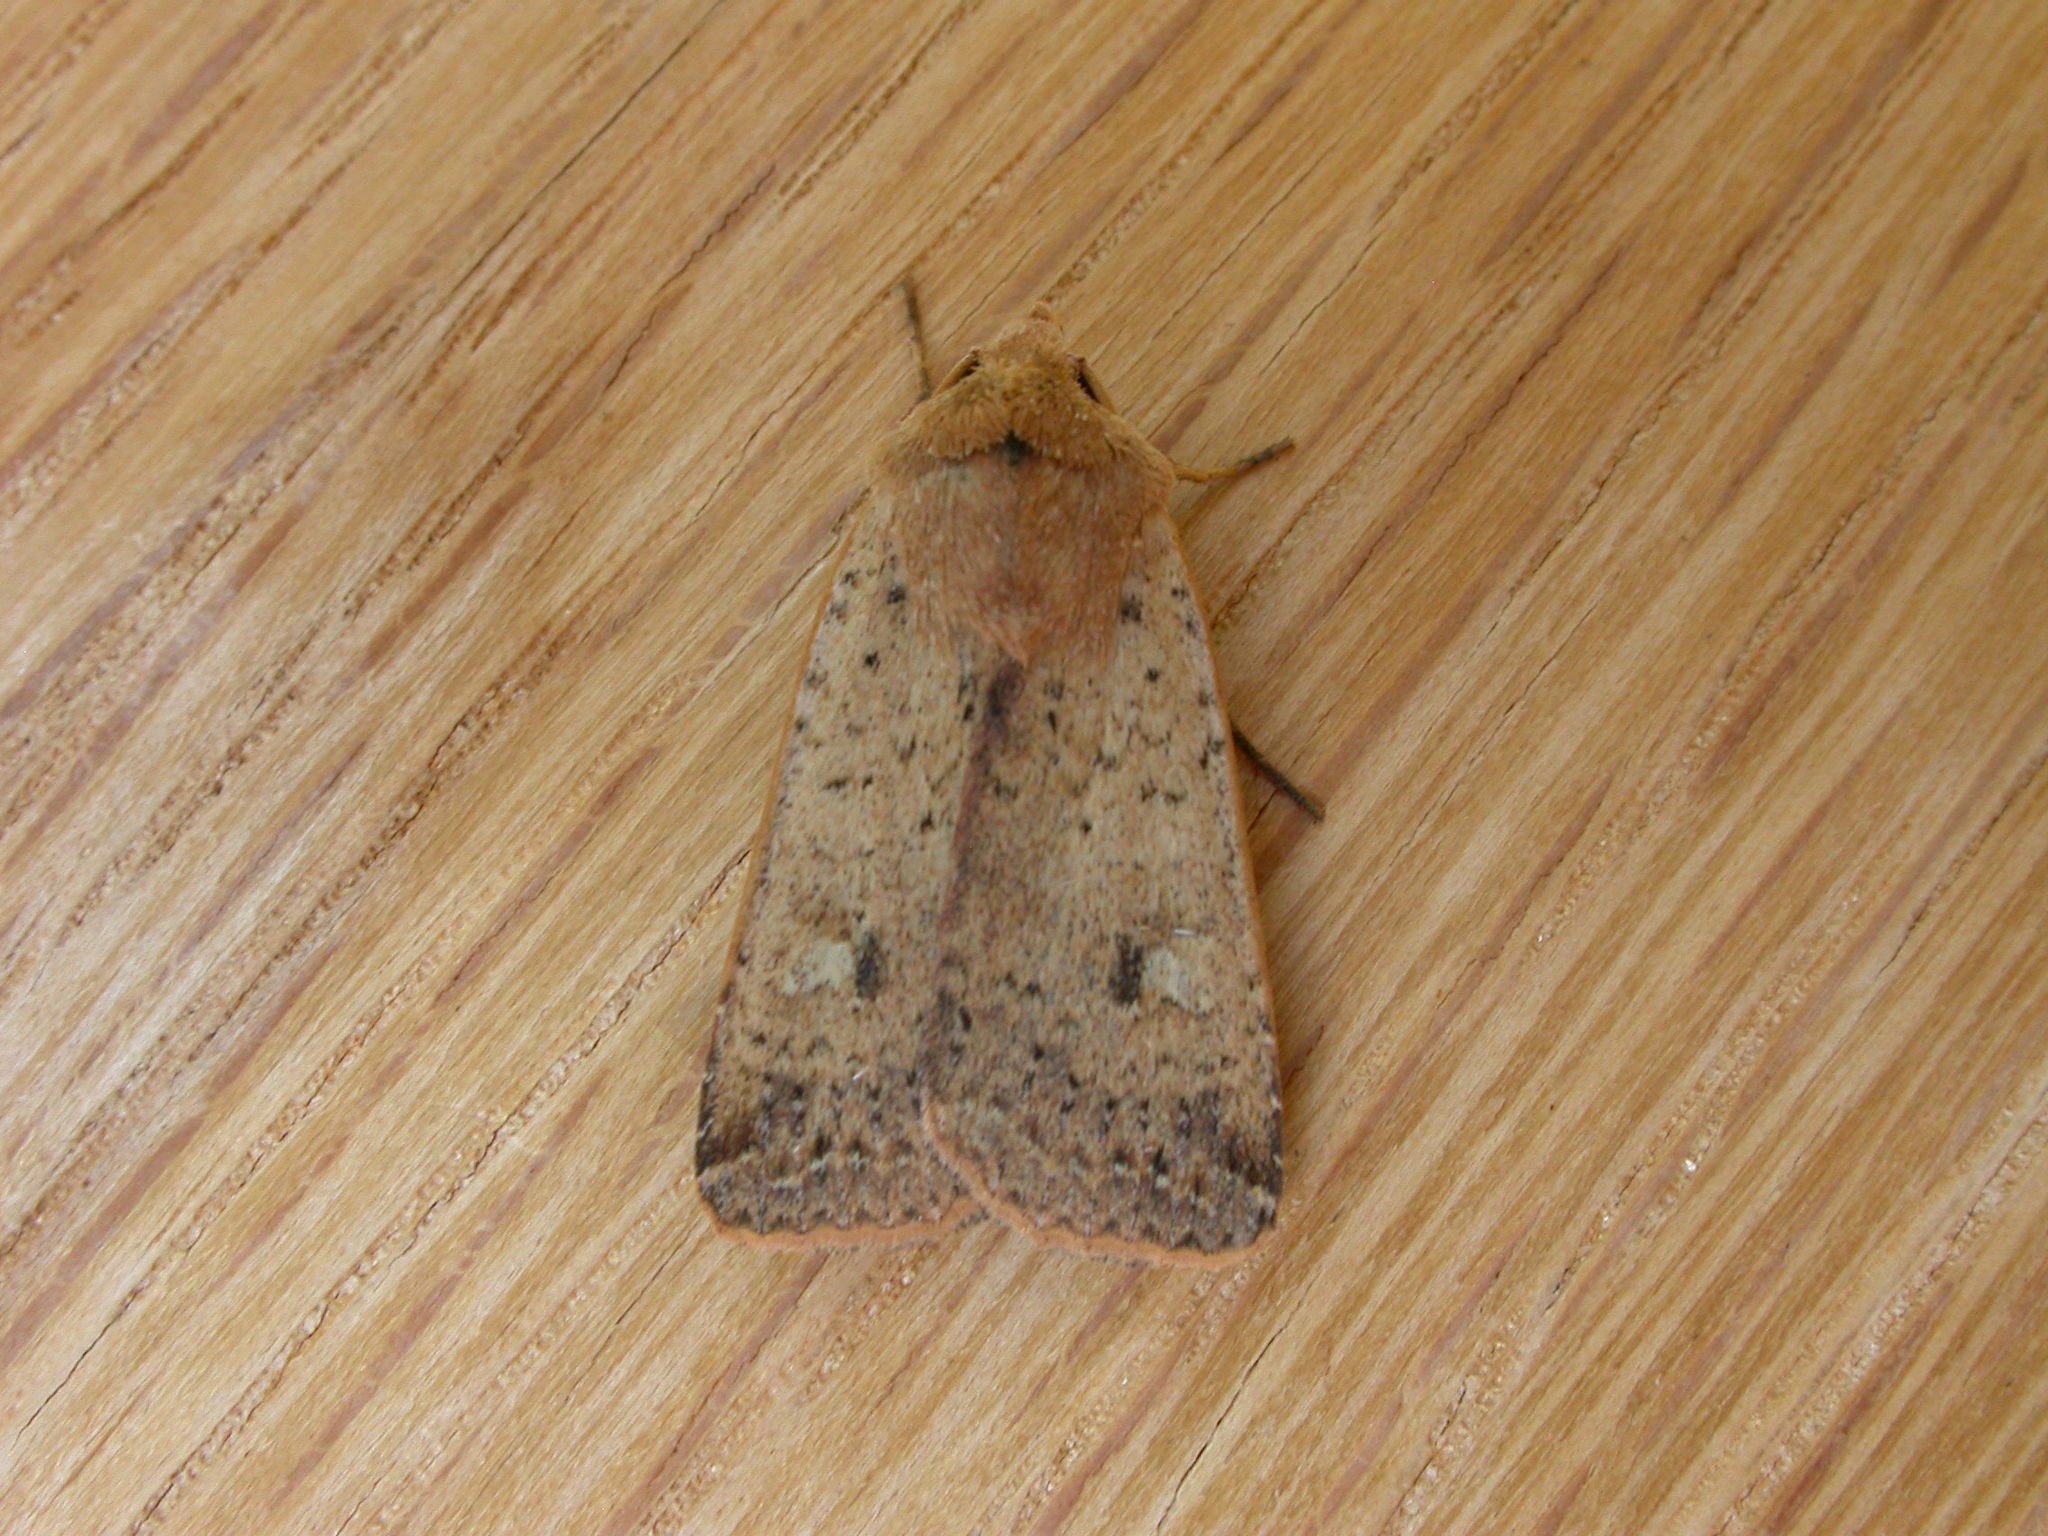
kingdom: Animalia
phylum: Arthropoda
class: Insecta
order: Lepidoptera
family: Noctuidae
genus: Diarsia
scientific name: Diarsia intermixta
